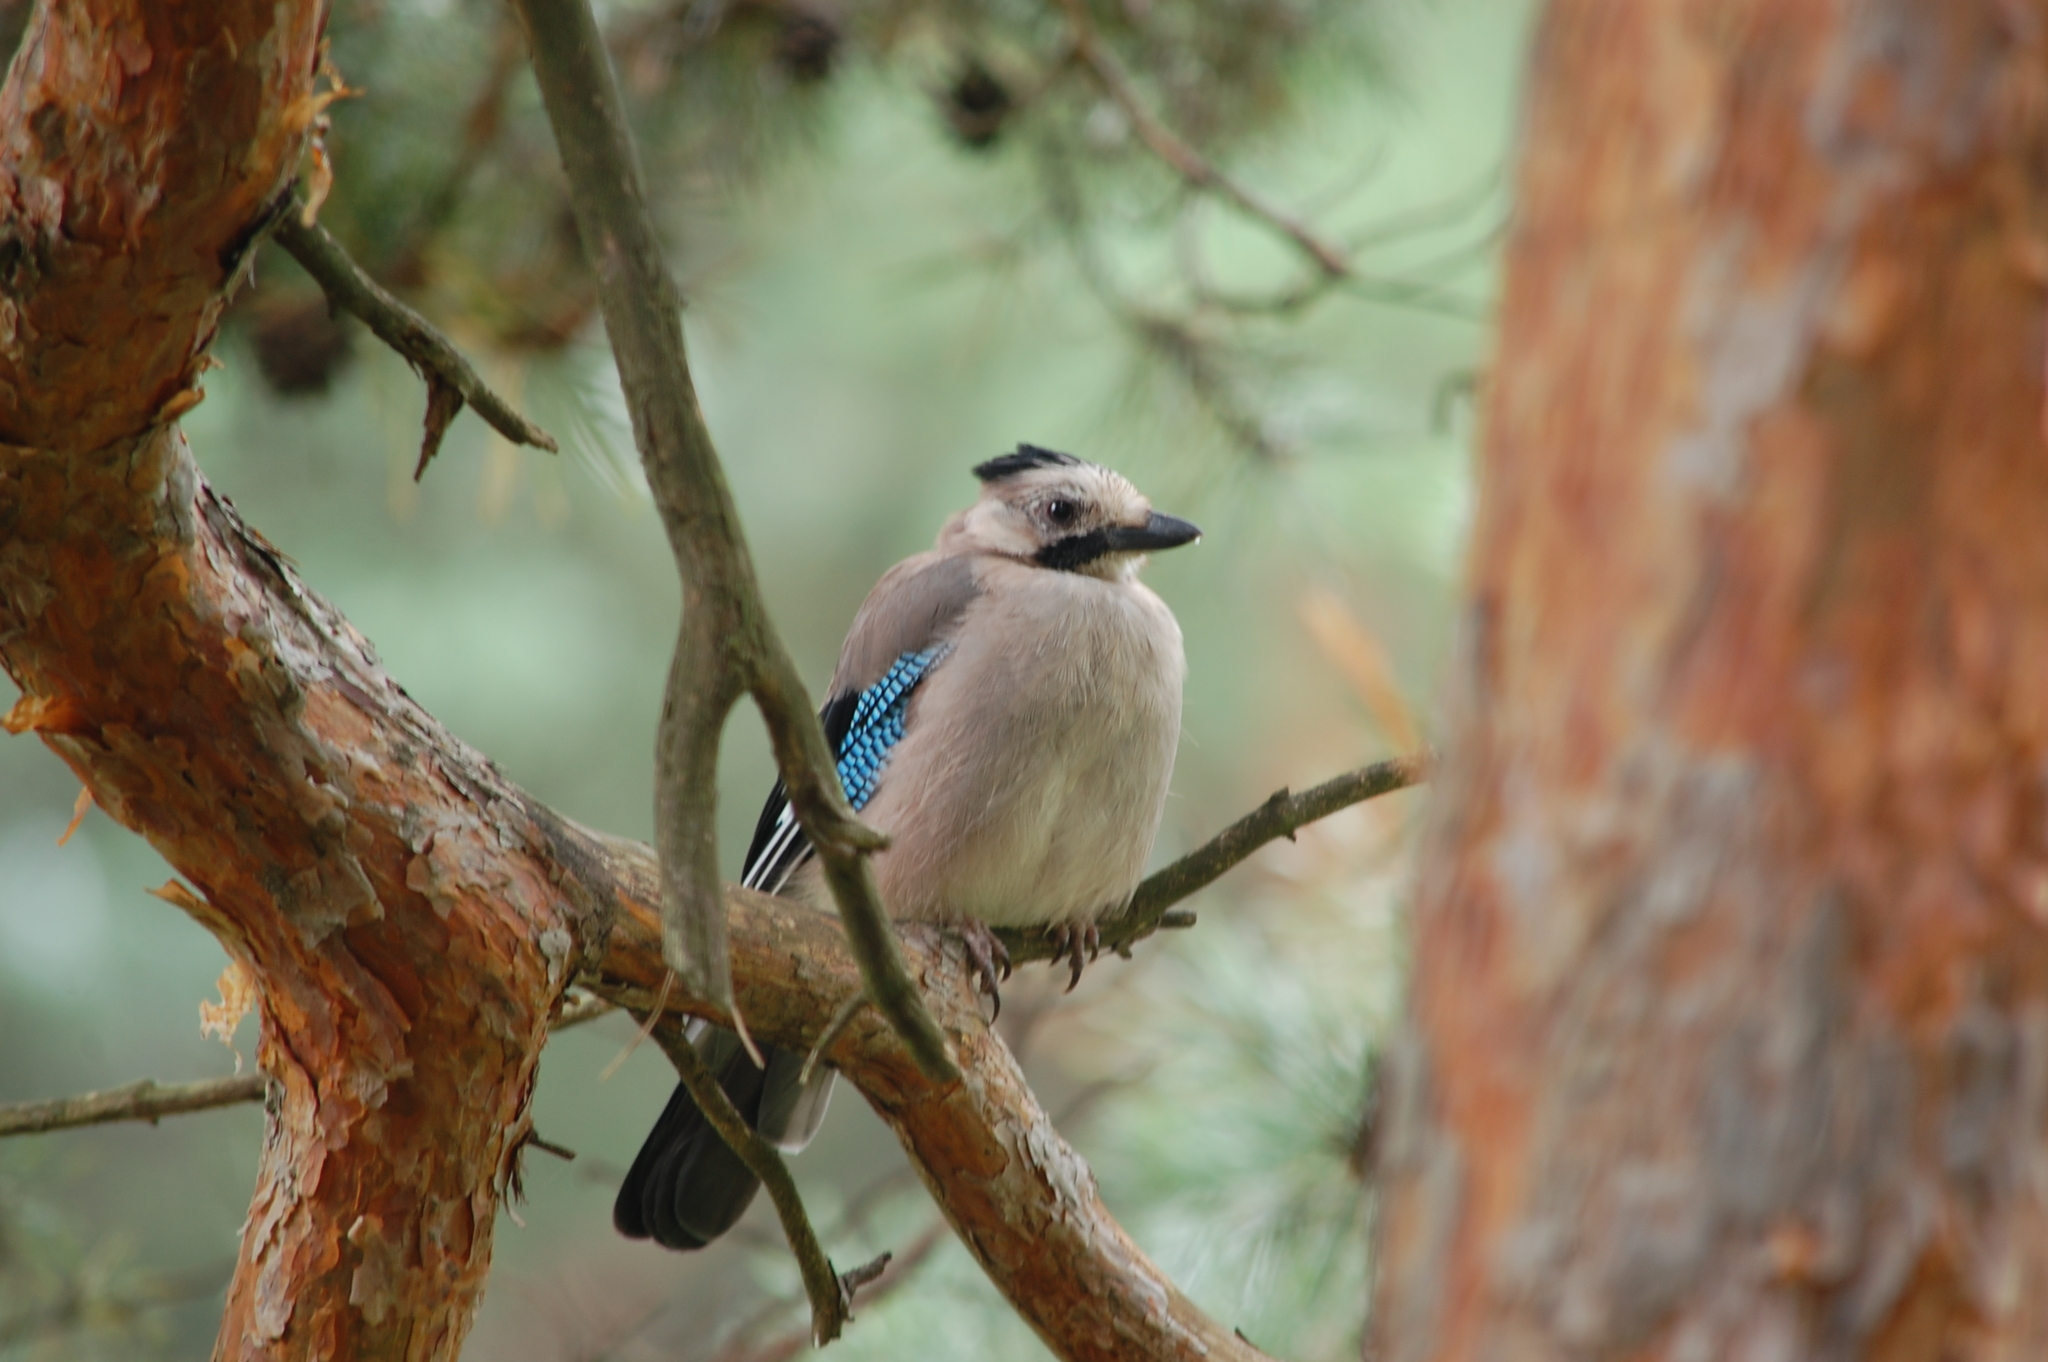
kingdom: Animalia
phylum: Chordata
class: Aves
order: Passeriformes
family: Corvidae
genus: Garrulus
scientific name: Garrulus glandarius
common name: Eurasian jay
